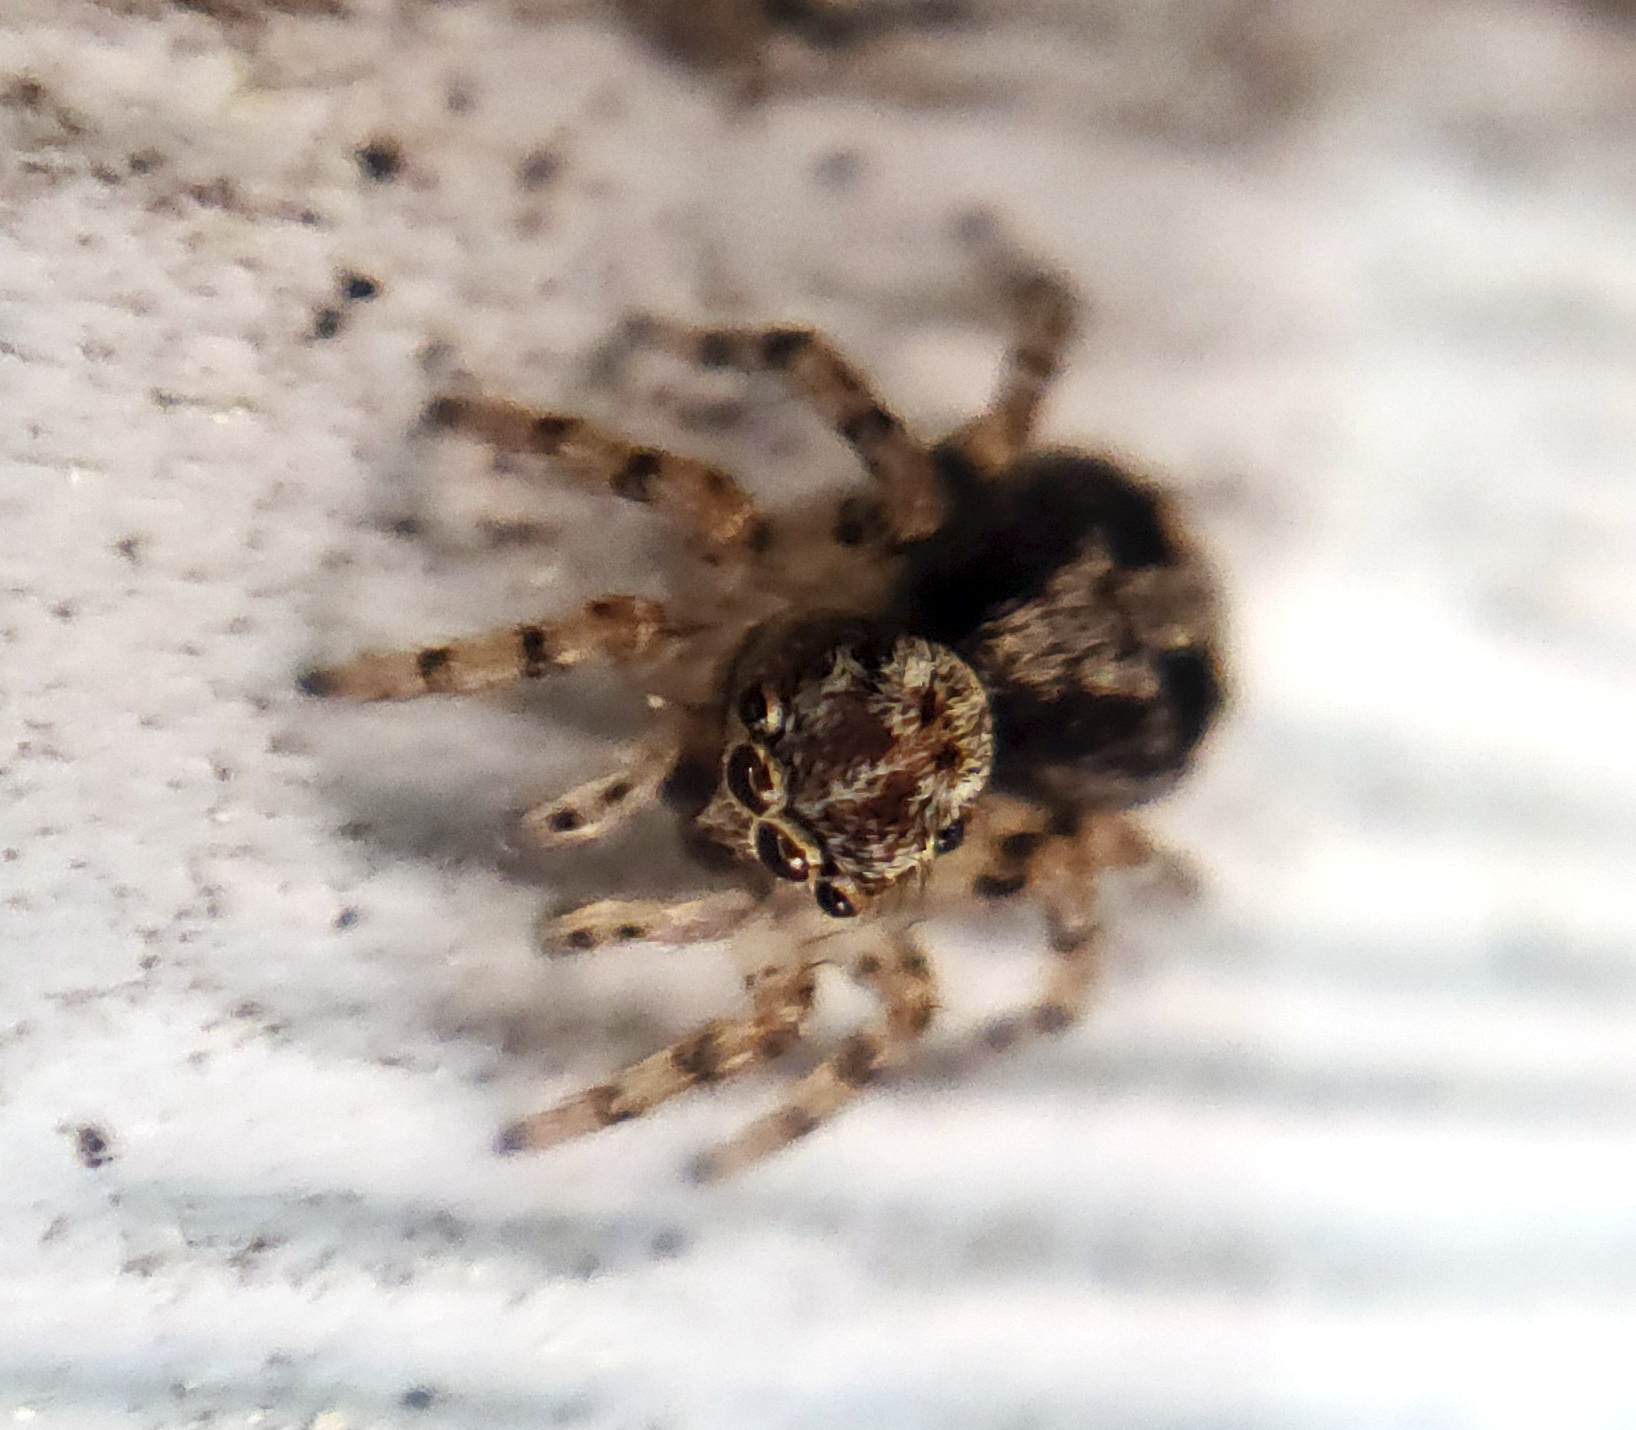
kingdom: Animalia
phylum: Arthropoda
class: Arachnida
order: Araneae
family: Salticidae
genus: Naphrys
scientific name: Naphrys pulex
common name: Flea jumping spider
